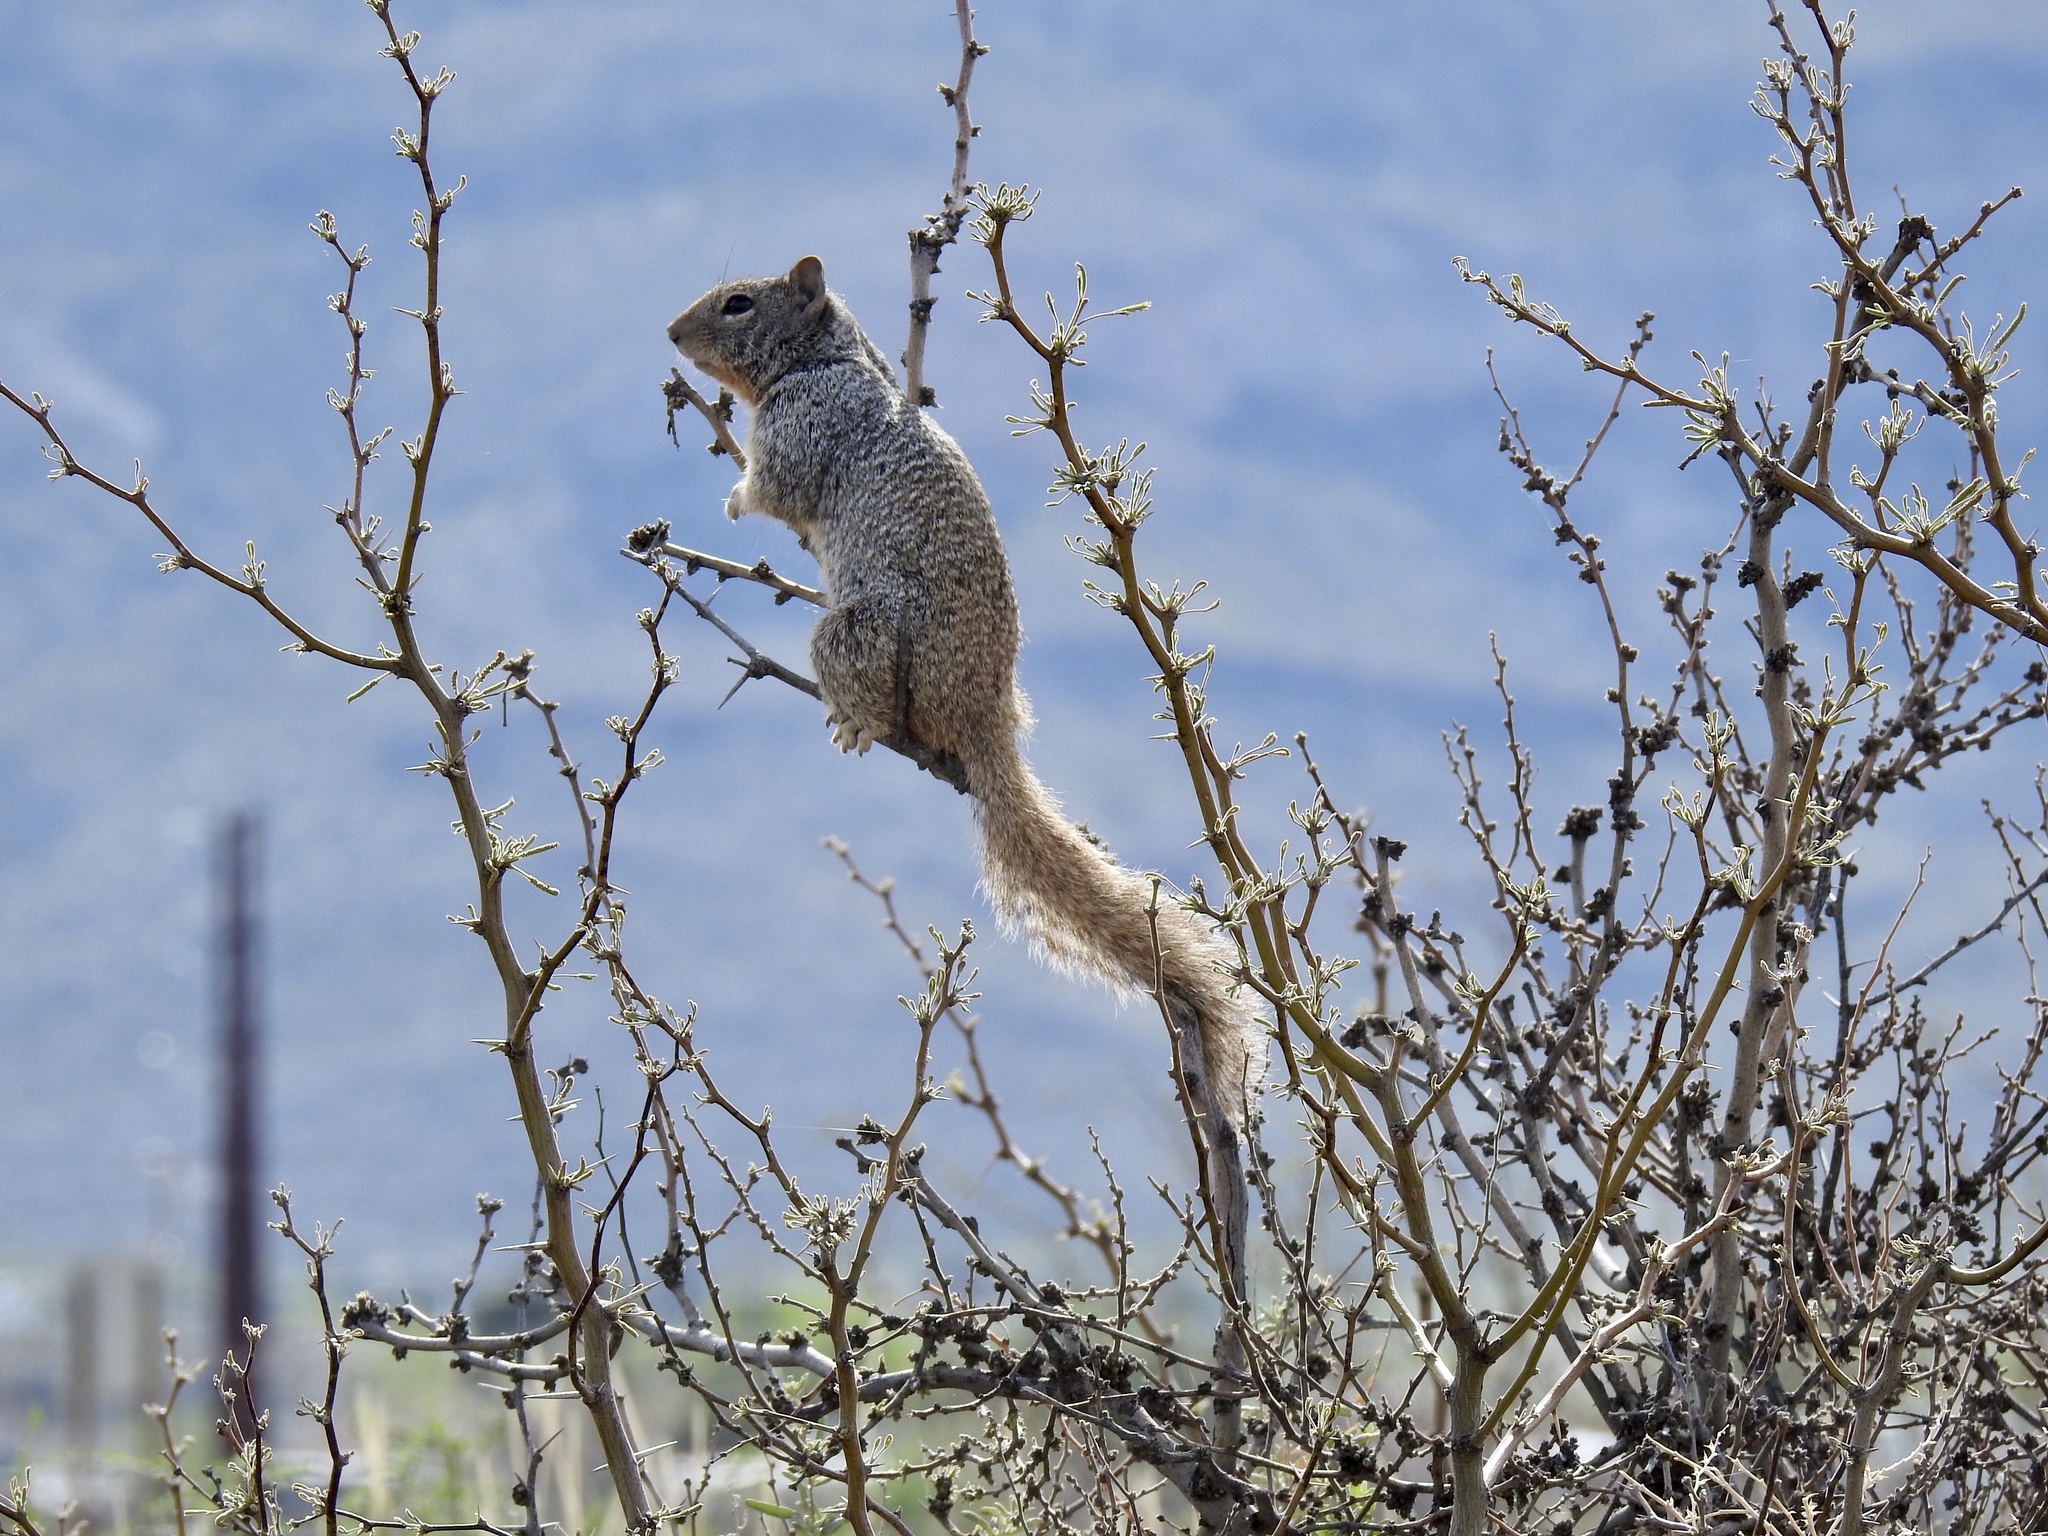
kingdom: Animalia
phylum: Chordata
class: Mammalia
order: Rodentia
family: Sciuridae
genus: Otospermophilus
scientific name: Otospermophilus variegatus
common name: Rock squirrel
